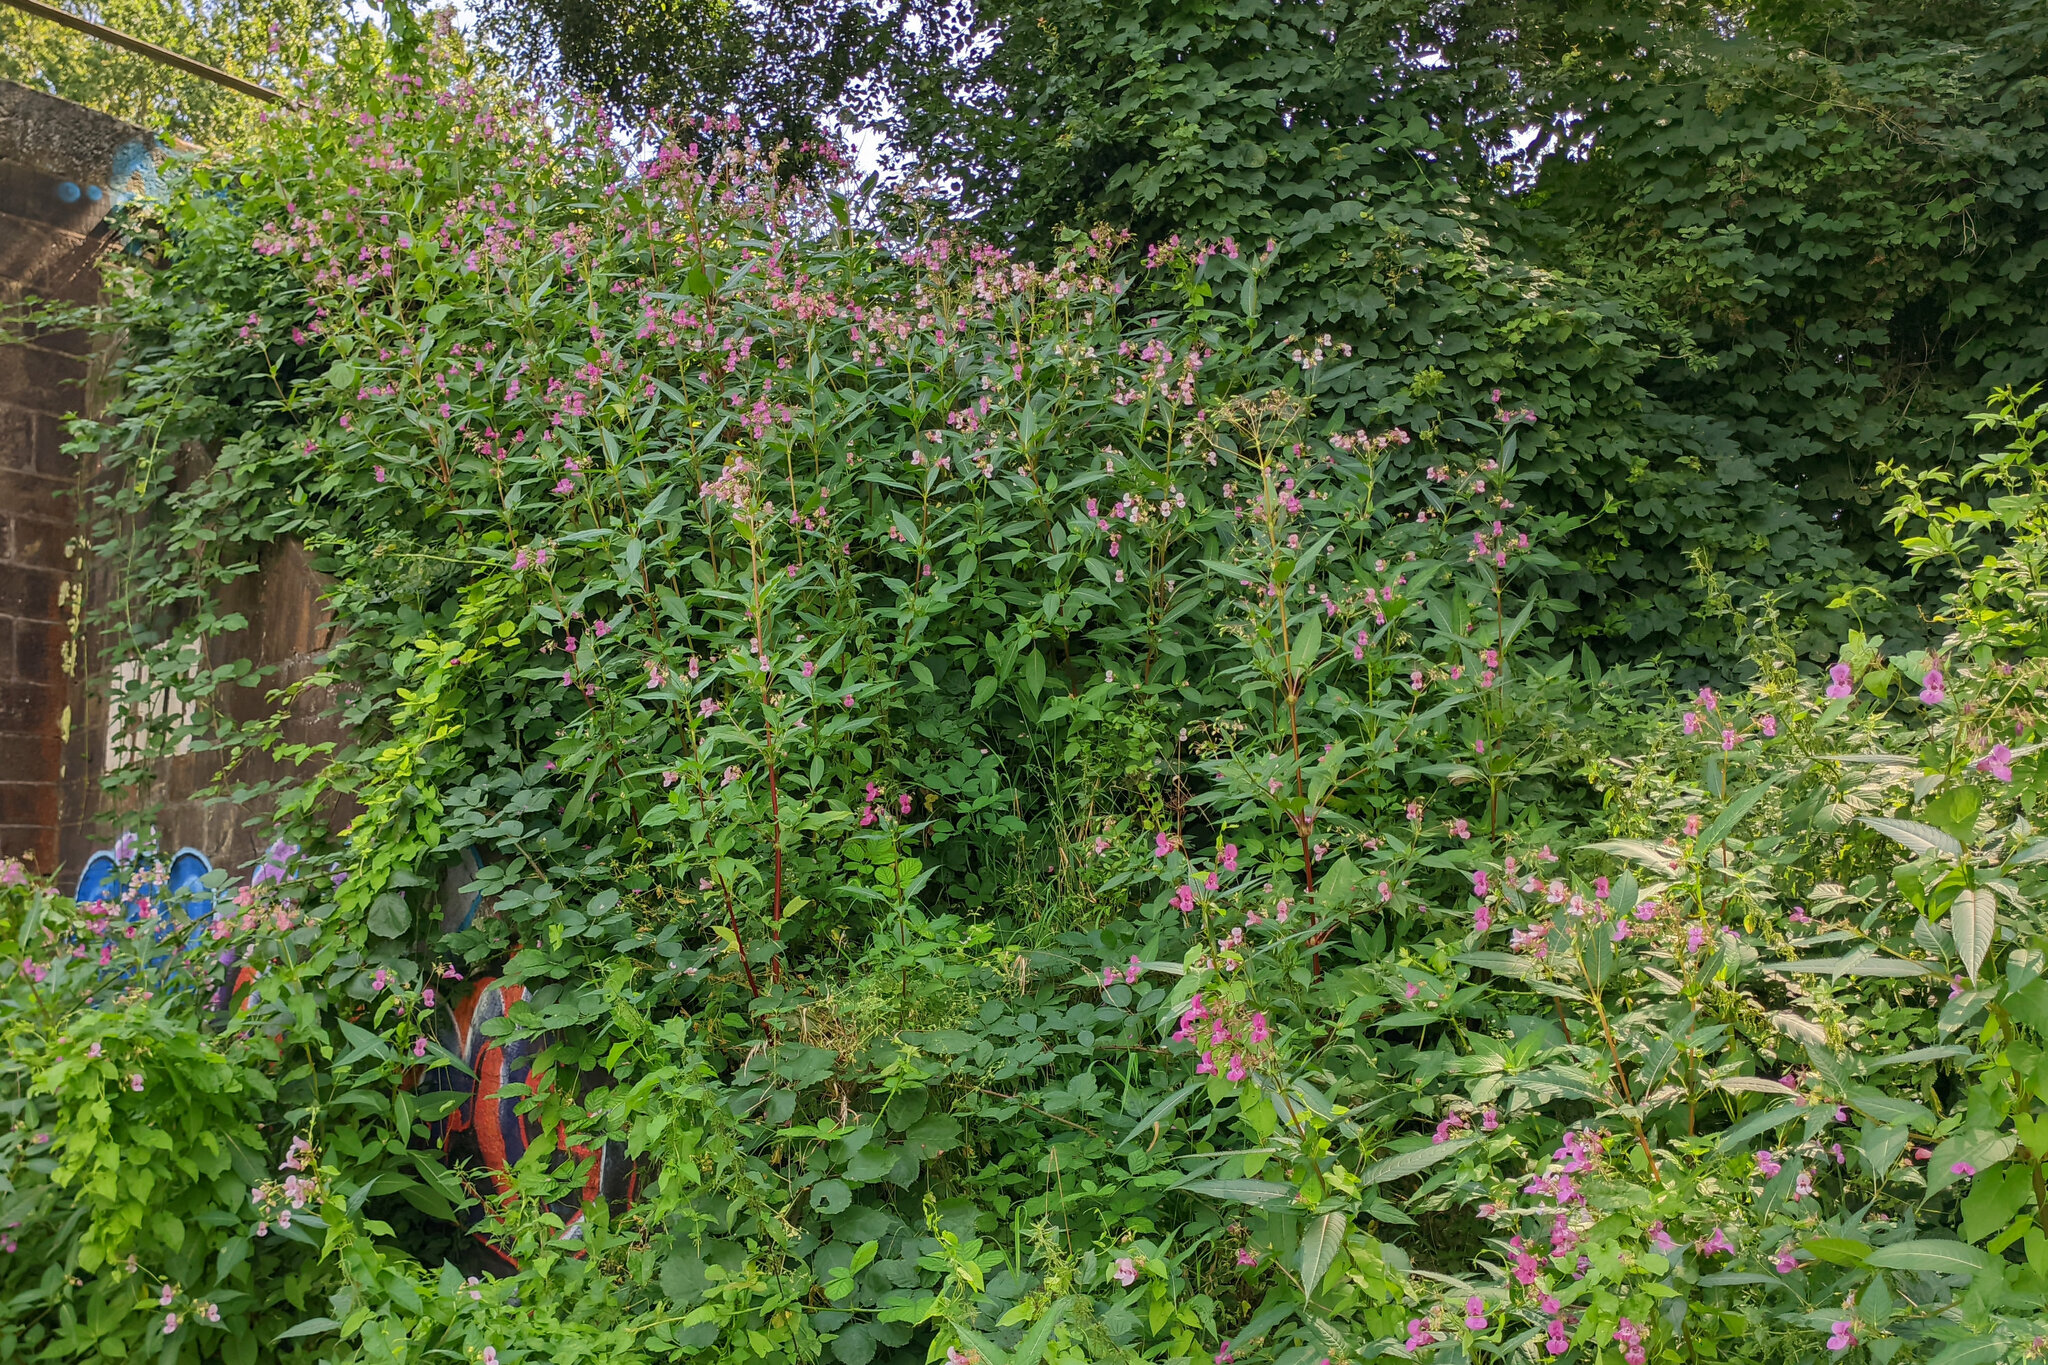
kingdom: Plantae
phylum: Tracheophyta
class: Magnoliopsida
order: Ericales
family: Balsaminaceae
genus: Impatiens
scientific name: Impatiens glandulifera
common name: Himalayan balsam
